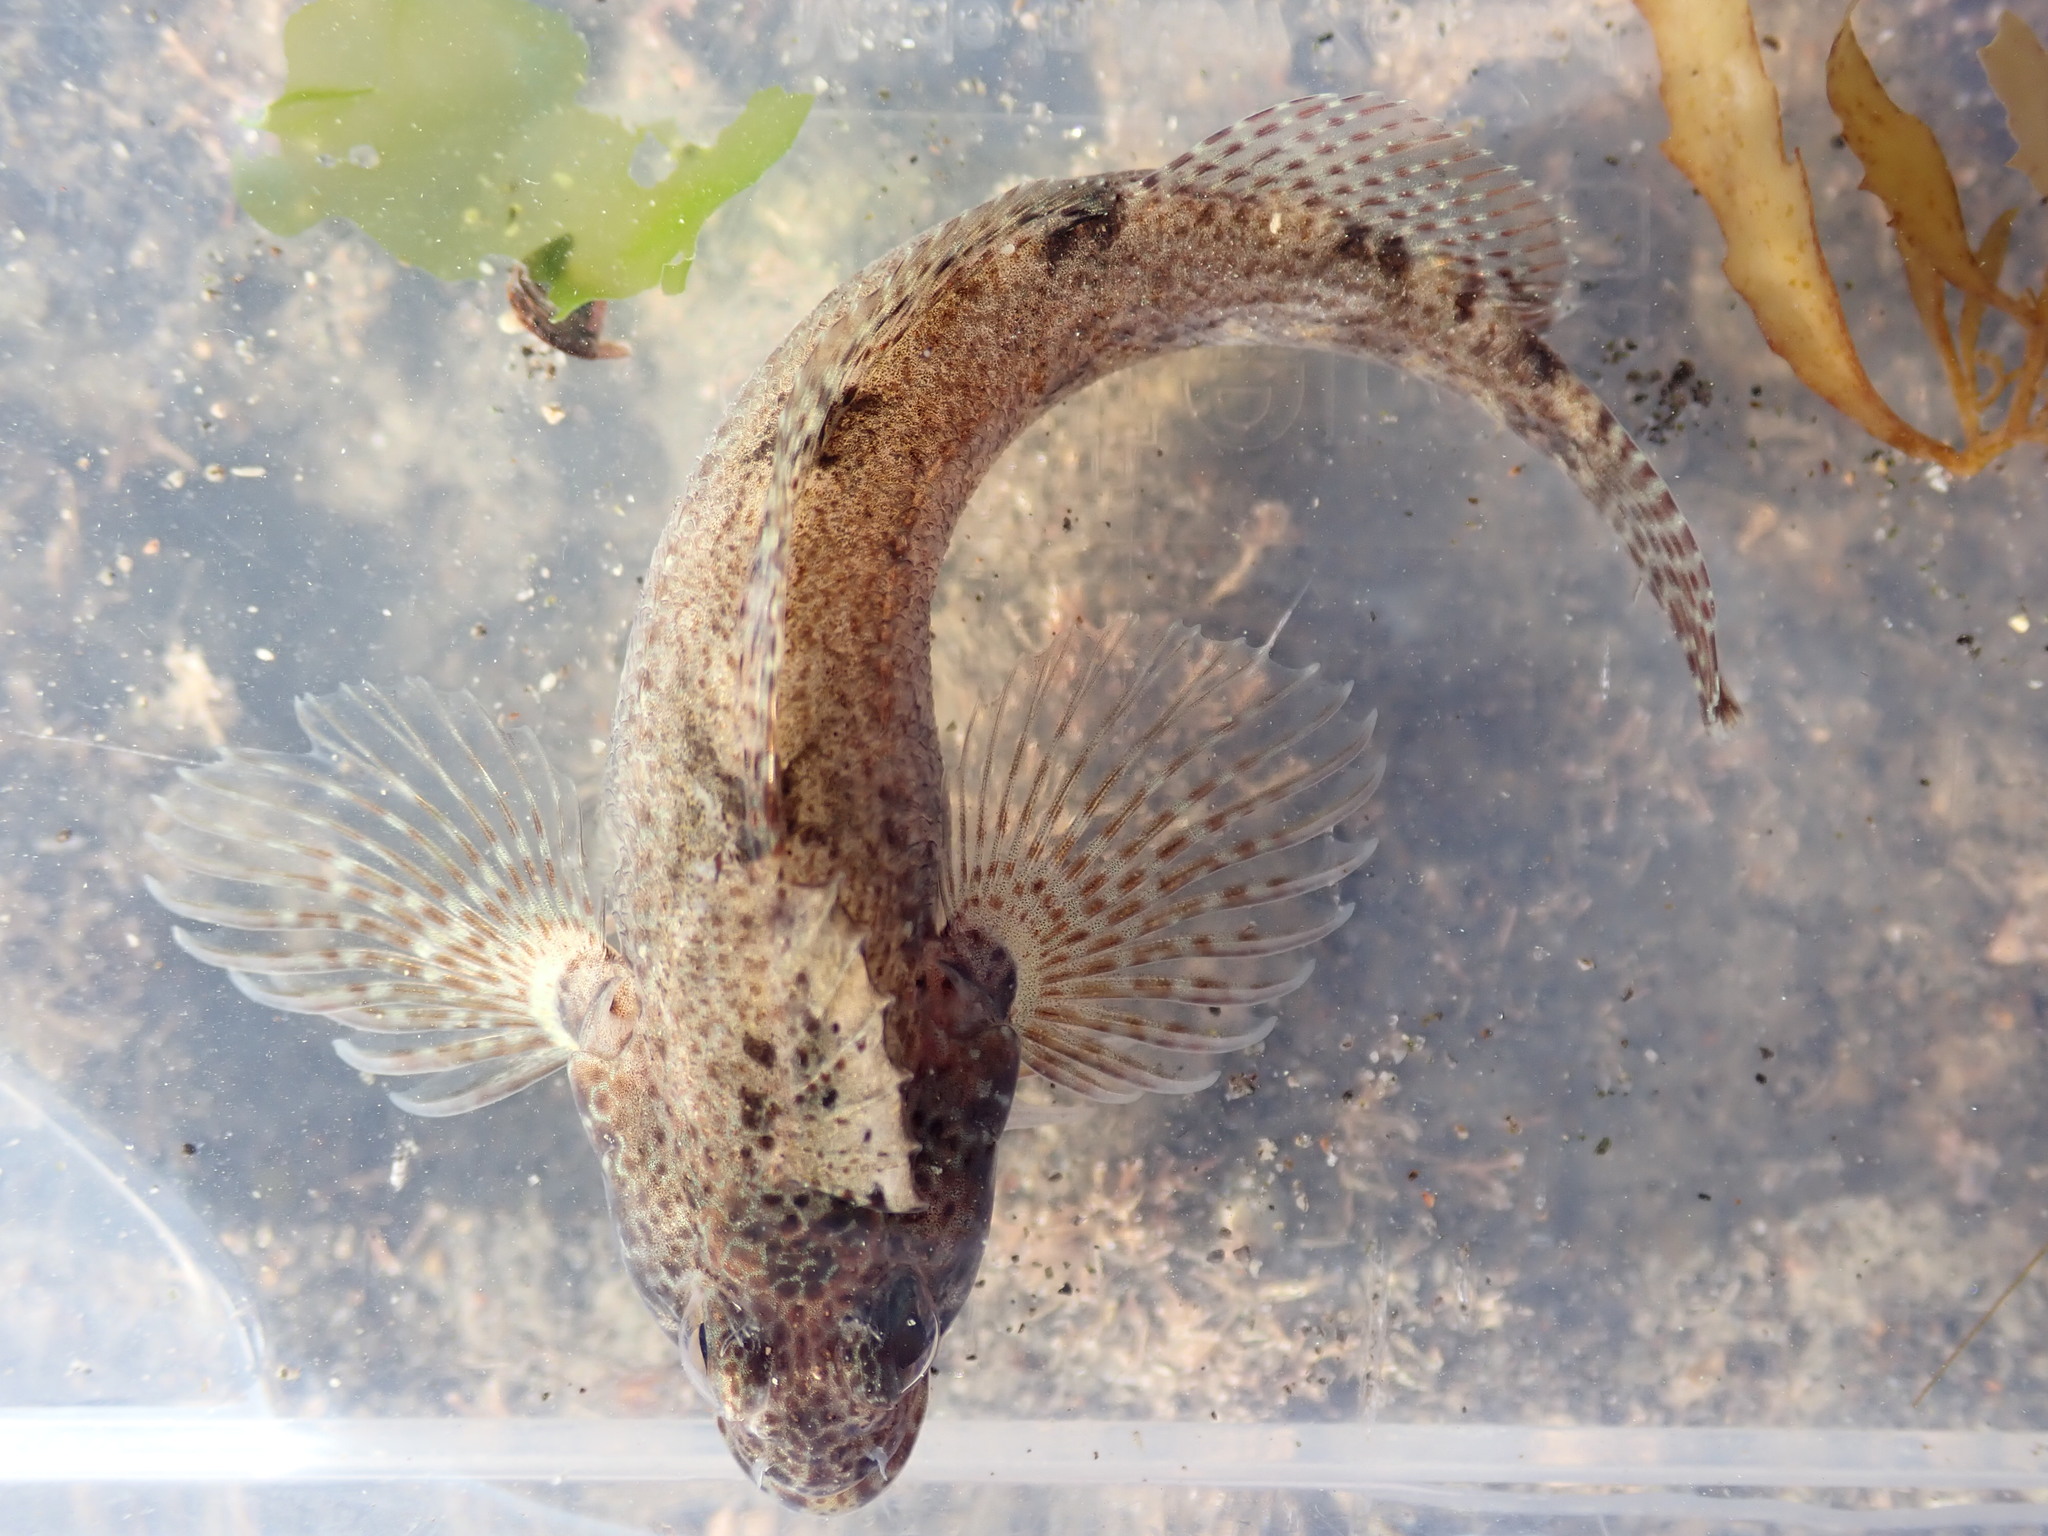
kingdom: Animalia
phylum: Chordata
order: Perciformes
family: Tripterygiidae
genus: Forsterygion
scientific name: Forsterygion gymnotum
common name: Multifid-tentacled robust triplefin
